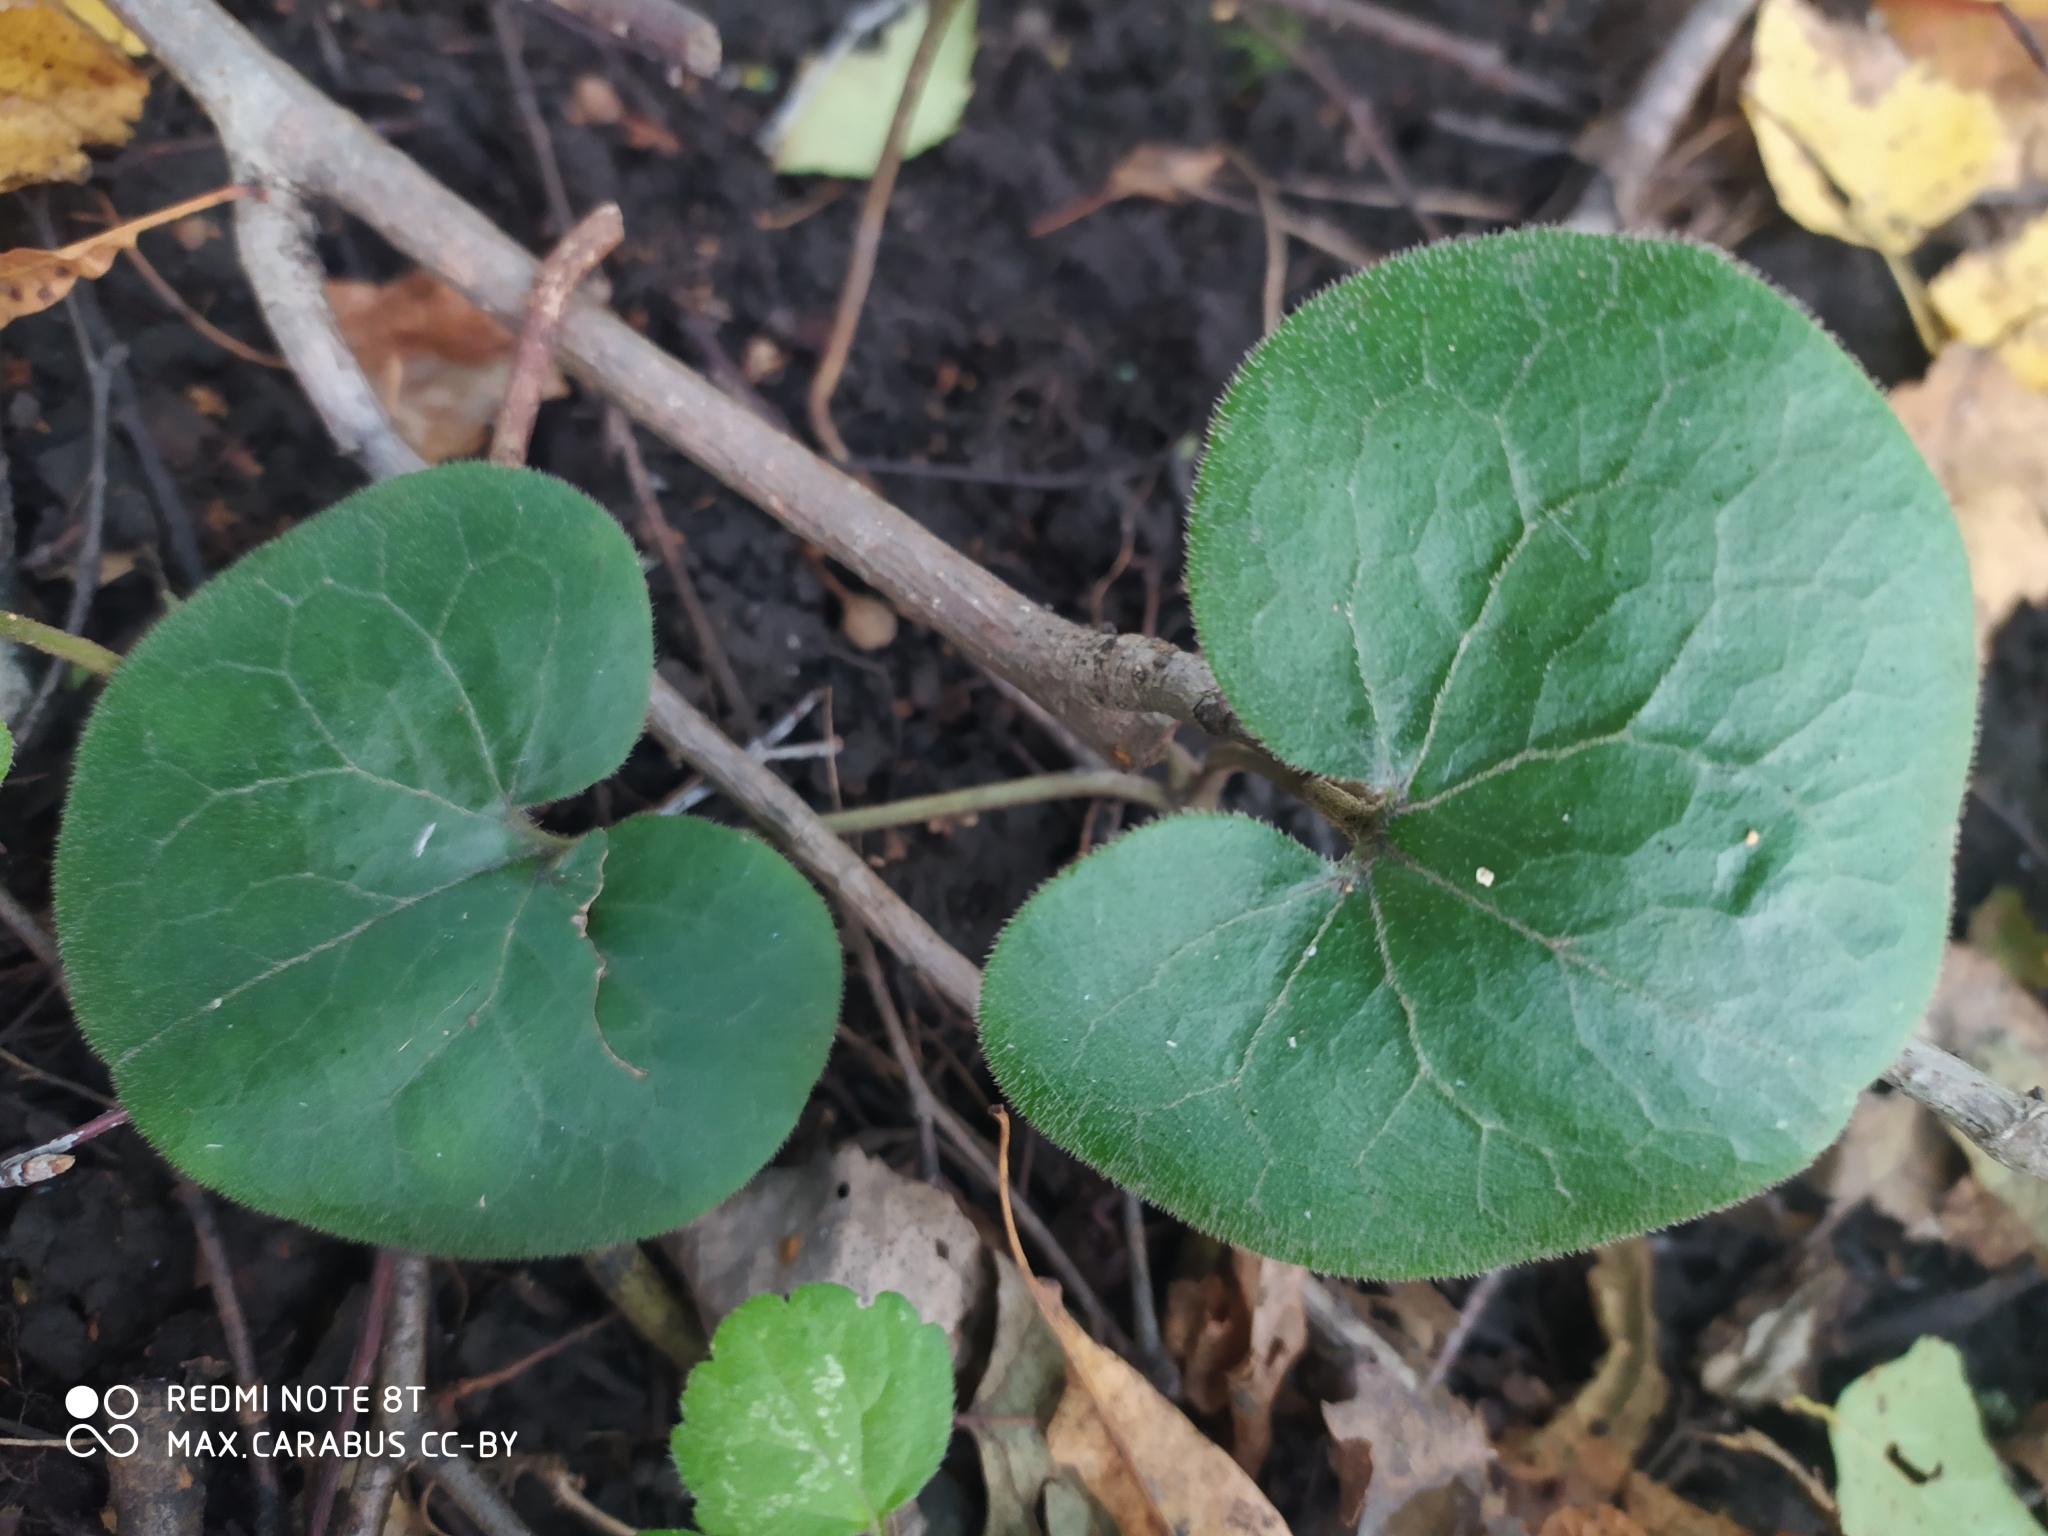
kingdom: Plantae
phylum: Tracheophyta
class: Magnoliopsida
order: Piperales
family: Aristolochiaceae
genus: Asarum
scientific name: Asarum europaeum
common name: Asarabacca
